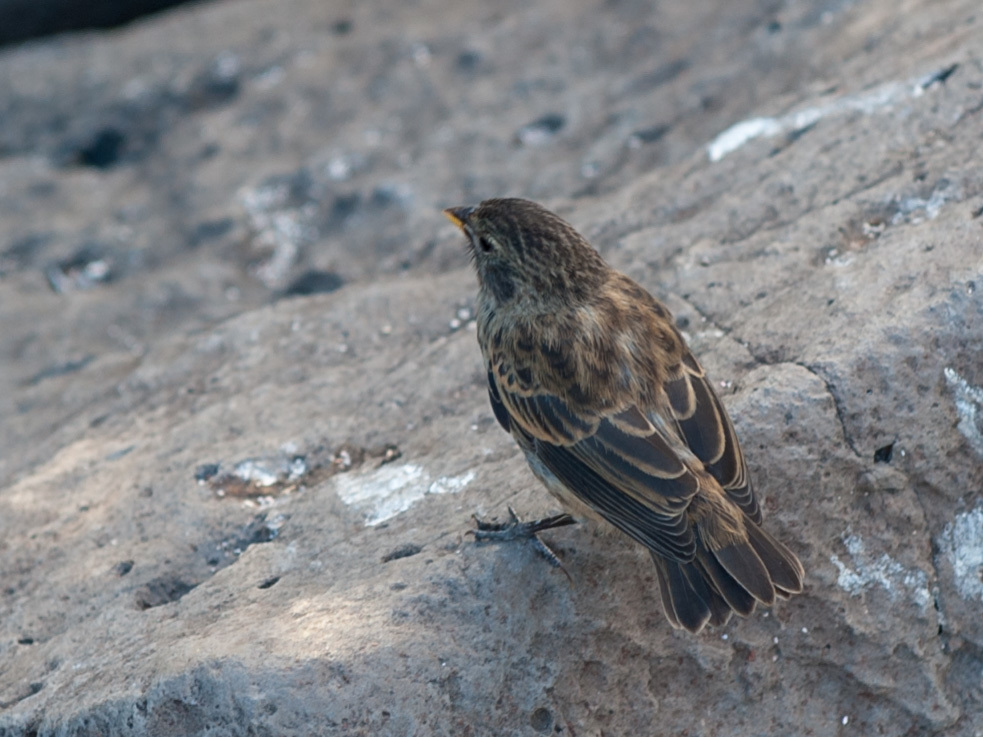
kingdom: Animalia
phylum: Chordata
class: Aves
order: Passeriformes
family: Thraupidae
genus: Geospiza
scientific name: Geospiza fuliginosa
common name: Small ground finch
